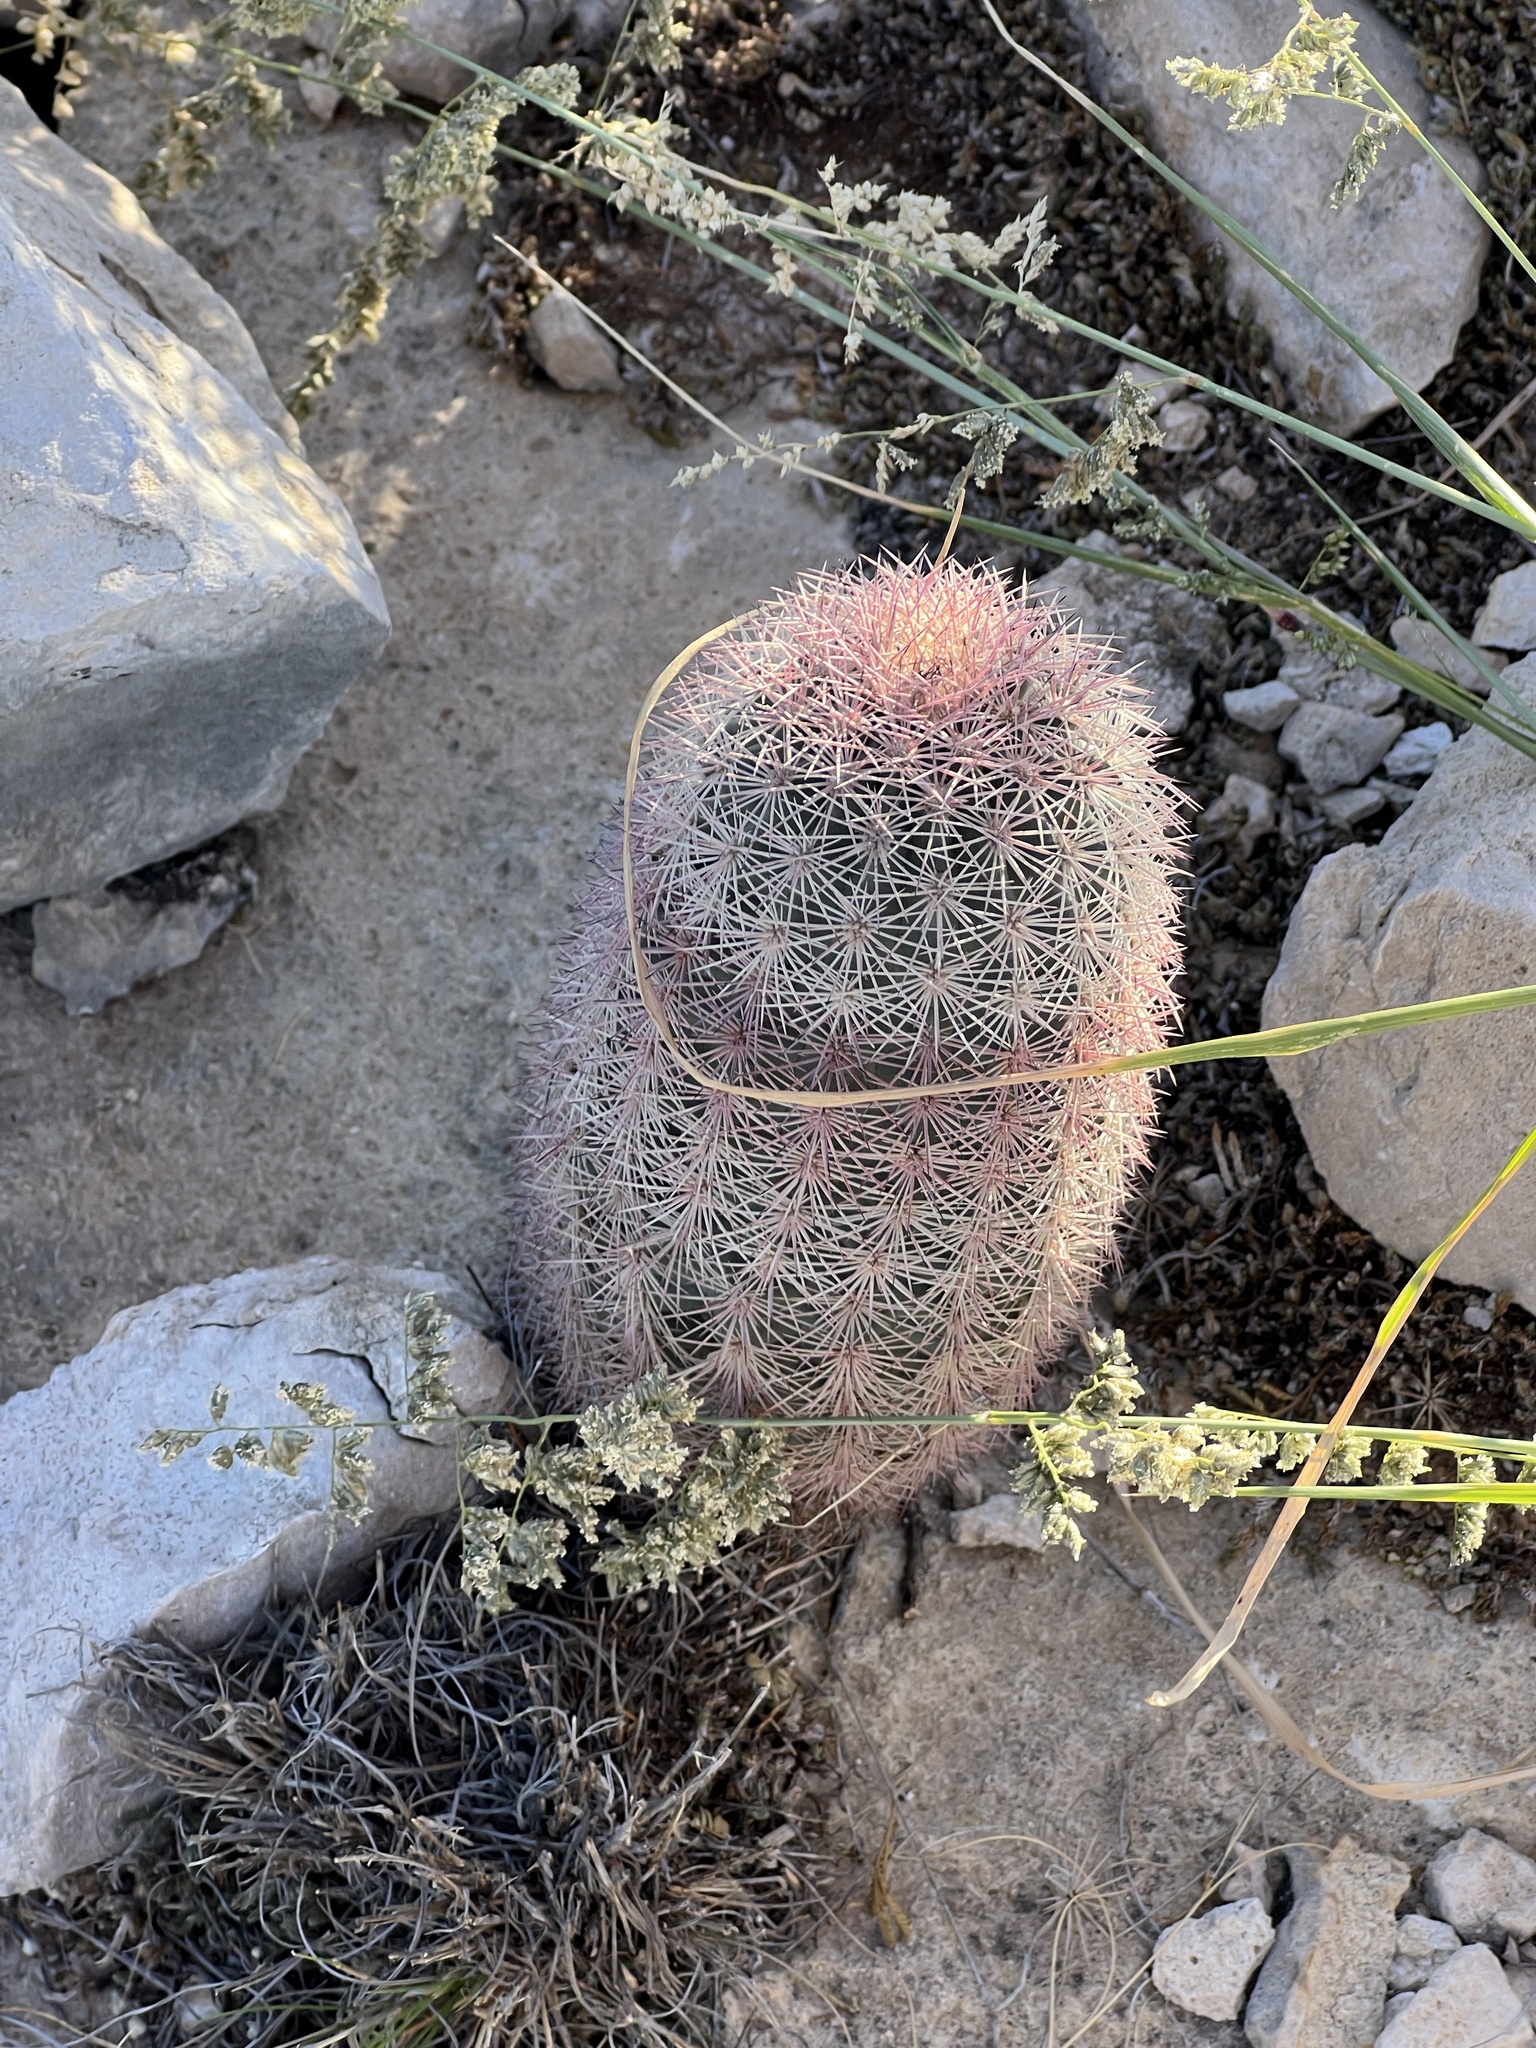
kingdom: Plantae
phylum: Tracheophyta
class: Magnoliopsida
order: Caryophyllales
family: Cactaceae
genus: Echinocereus
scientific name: Echinocereus dasyacanthus
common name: Spiny hedgehog cactus
